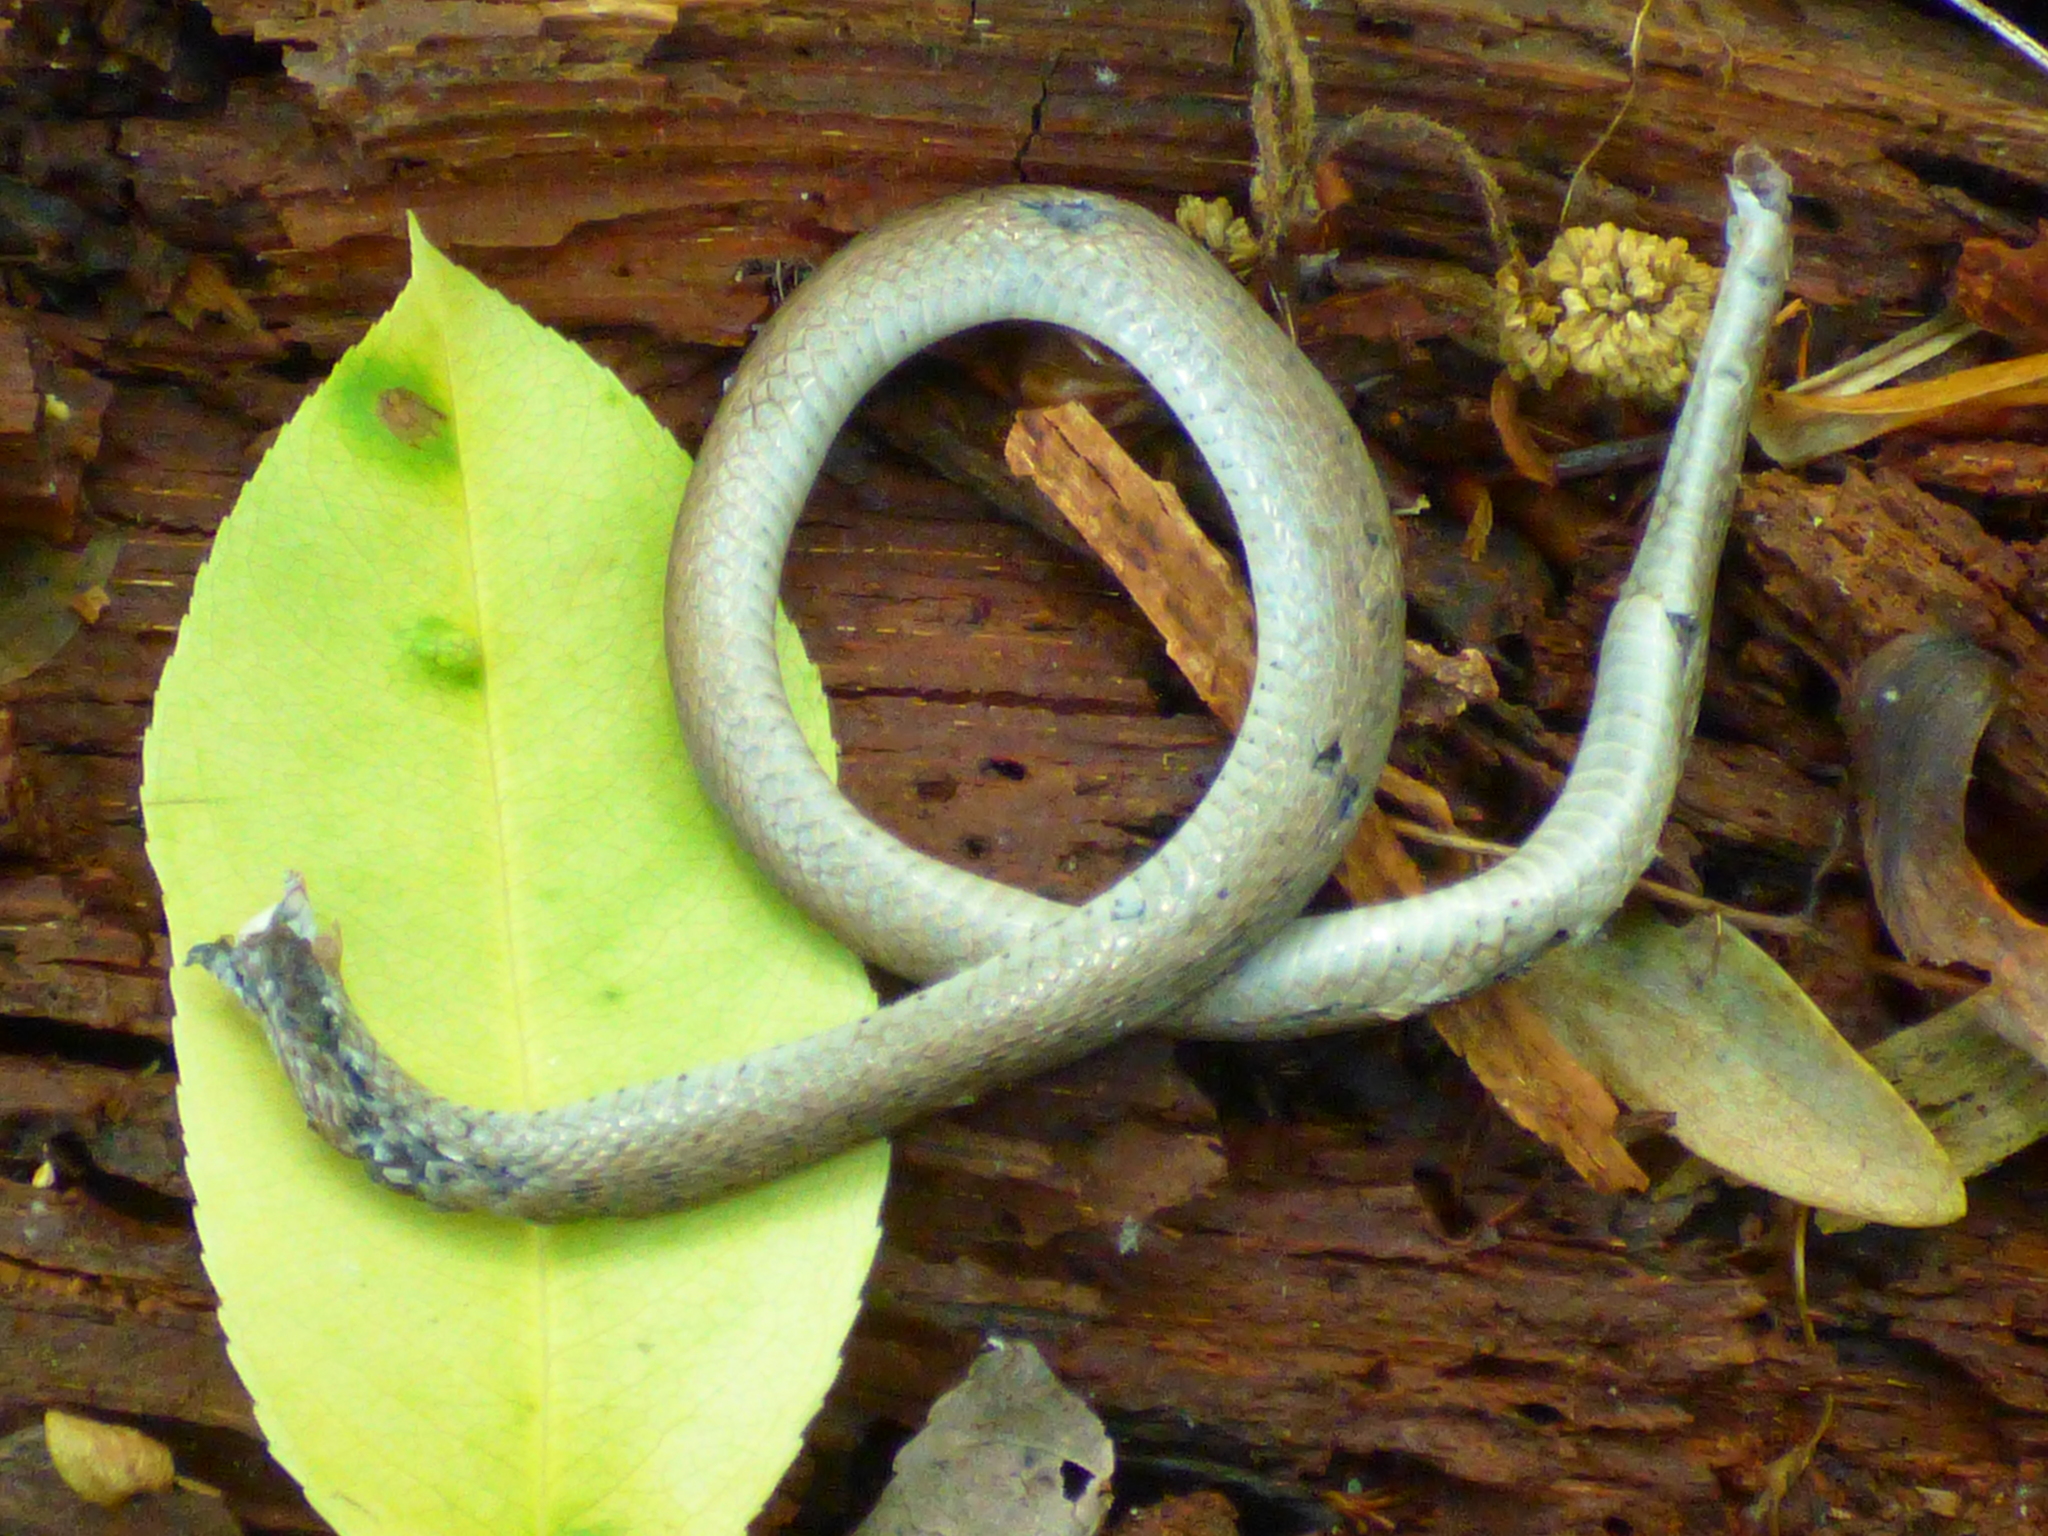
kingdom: Animalia
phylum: Chordata
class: Squamata
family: Colubridae
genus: Opheodrys
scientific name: Opheodrys aestivus
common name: Rough greensnake
